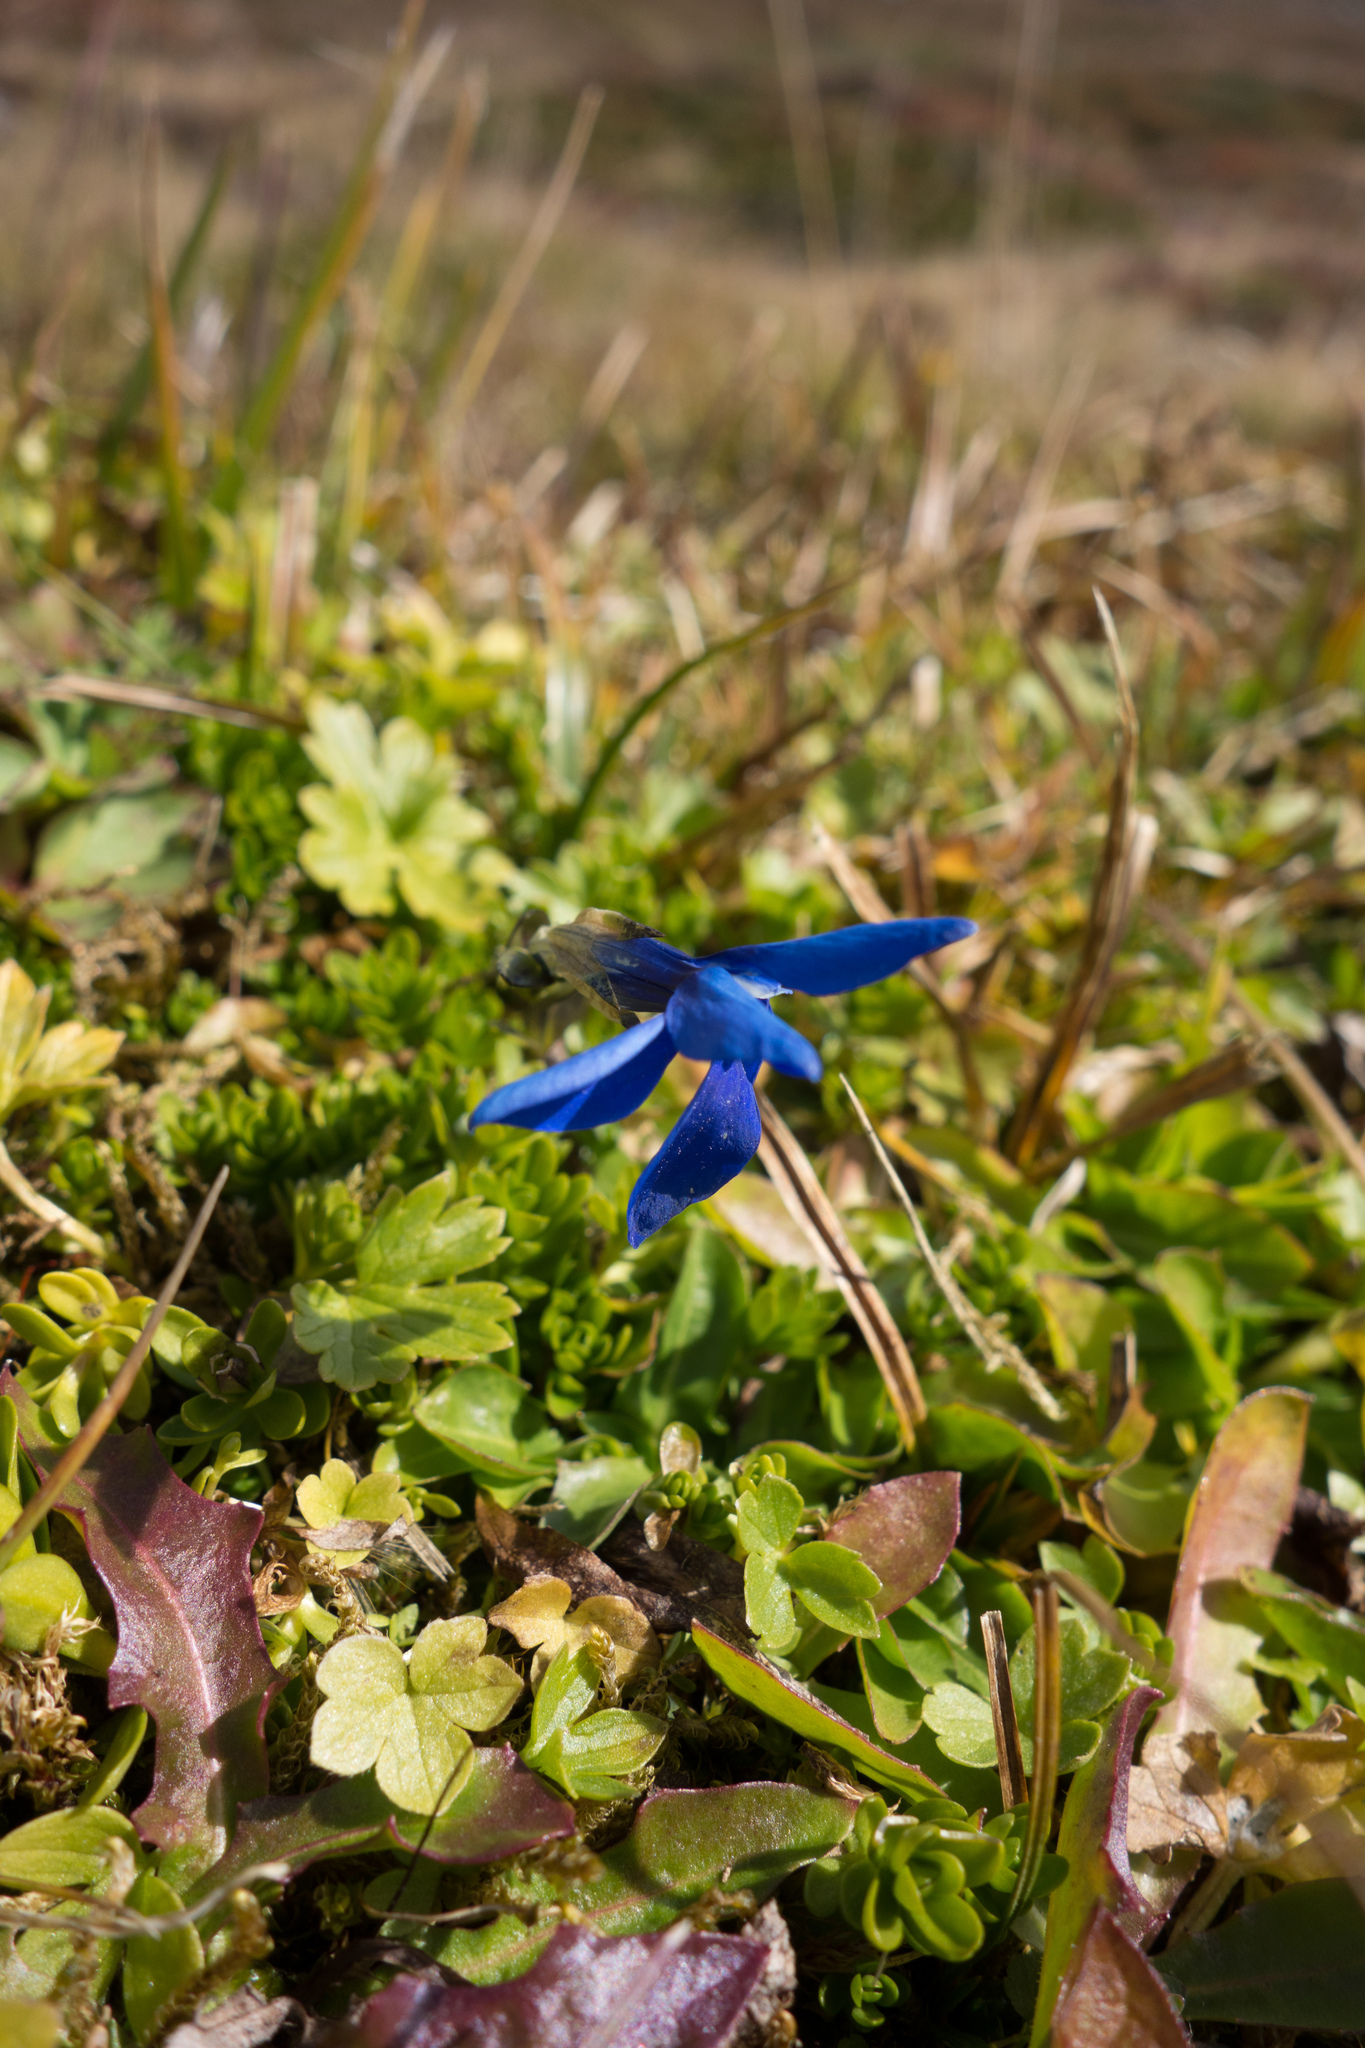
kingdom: Plantae
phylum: Tracheophyta
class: Magnoliopsida
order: Gentianales
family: Gentianaceae
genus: Gentiana
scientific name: Gentiana bavarica
